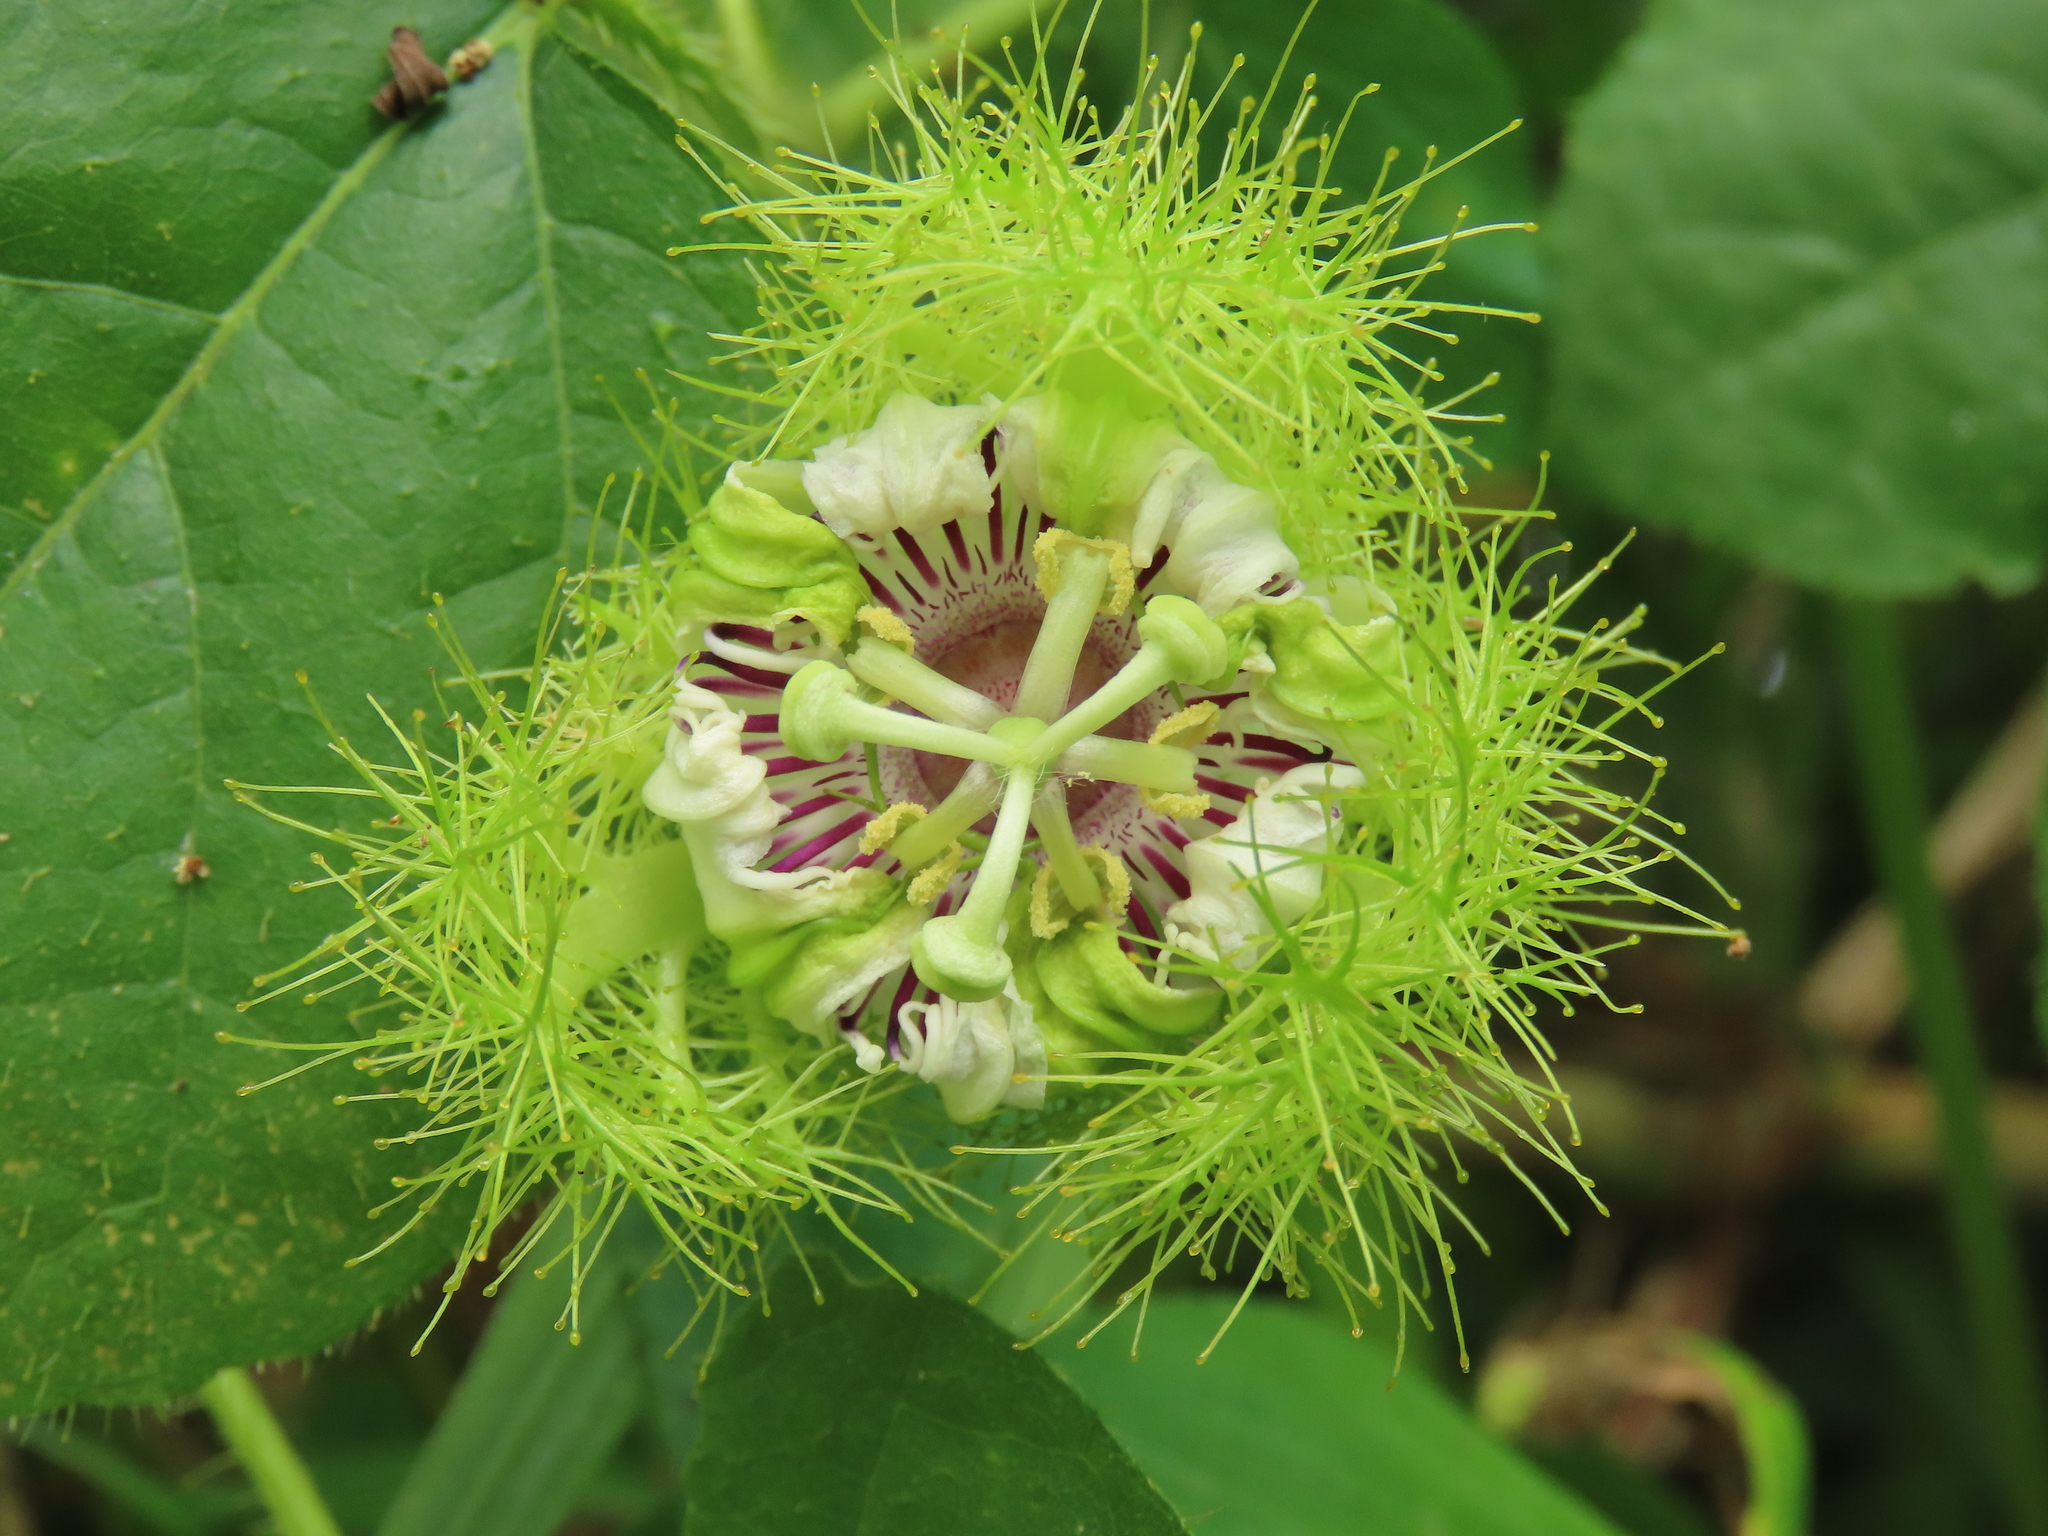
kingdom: Plantae
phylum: Tracheophyta
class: Magnoliopsida
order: Malpighiales
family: Passifloraceae
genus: Passiflora
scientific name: Passiflora vesicaria
